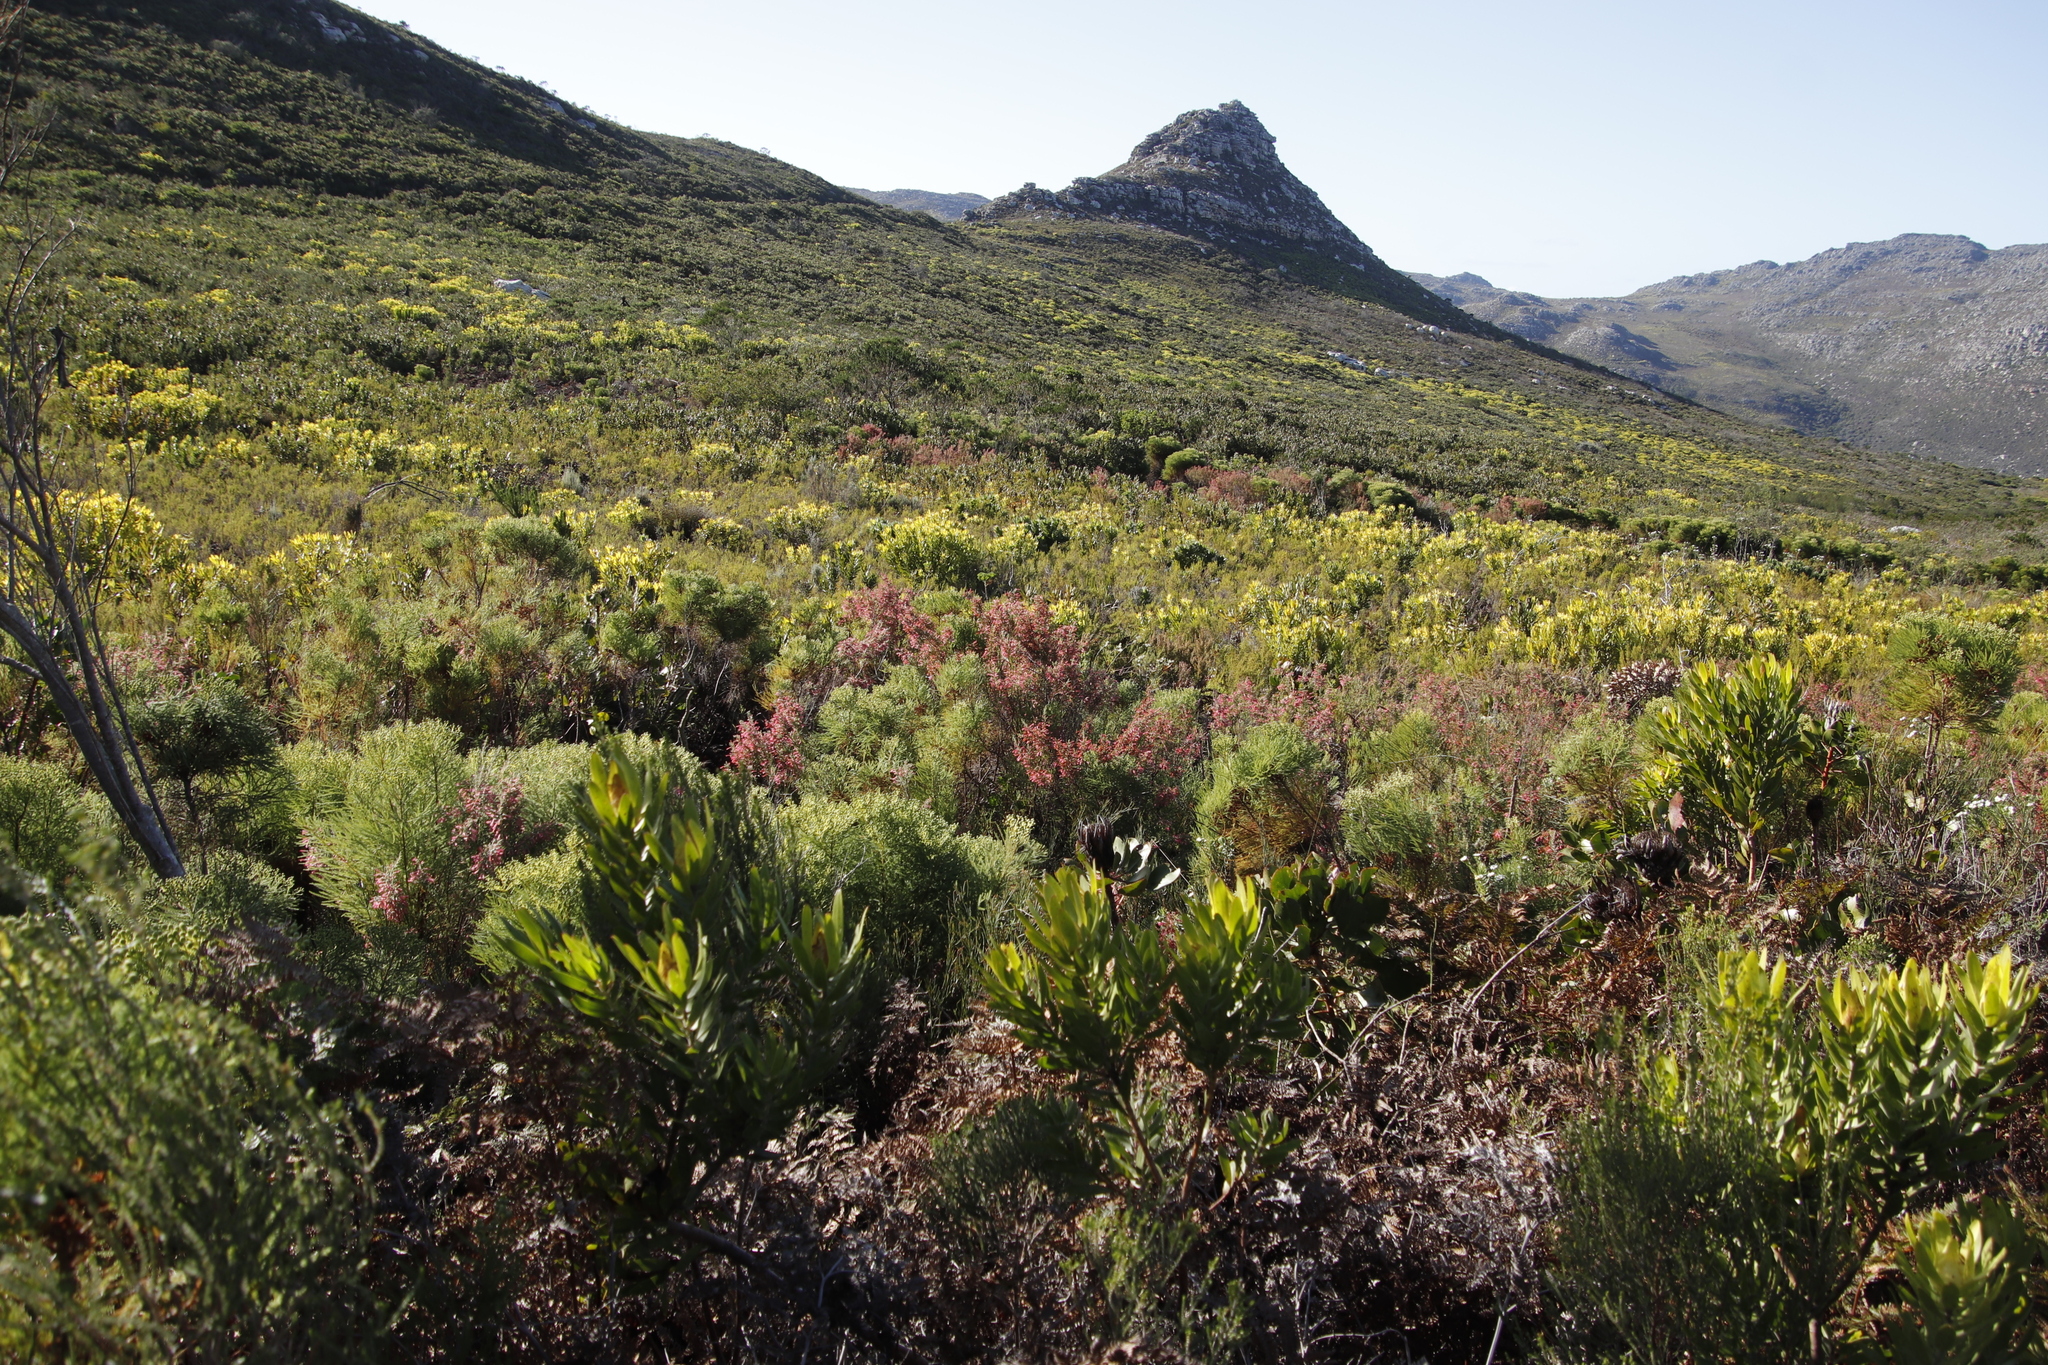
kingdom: Plantae
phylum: Tracheophyta
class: Magnoliopsida
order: Ericales
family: Ericaceae
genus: Erica
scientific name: Erica curviflora
